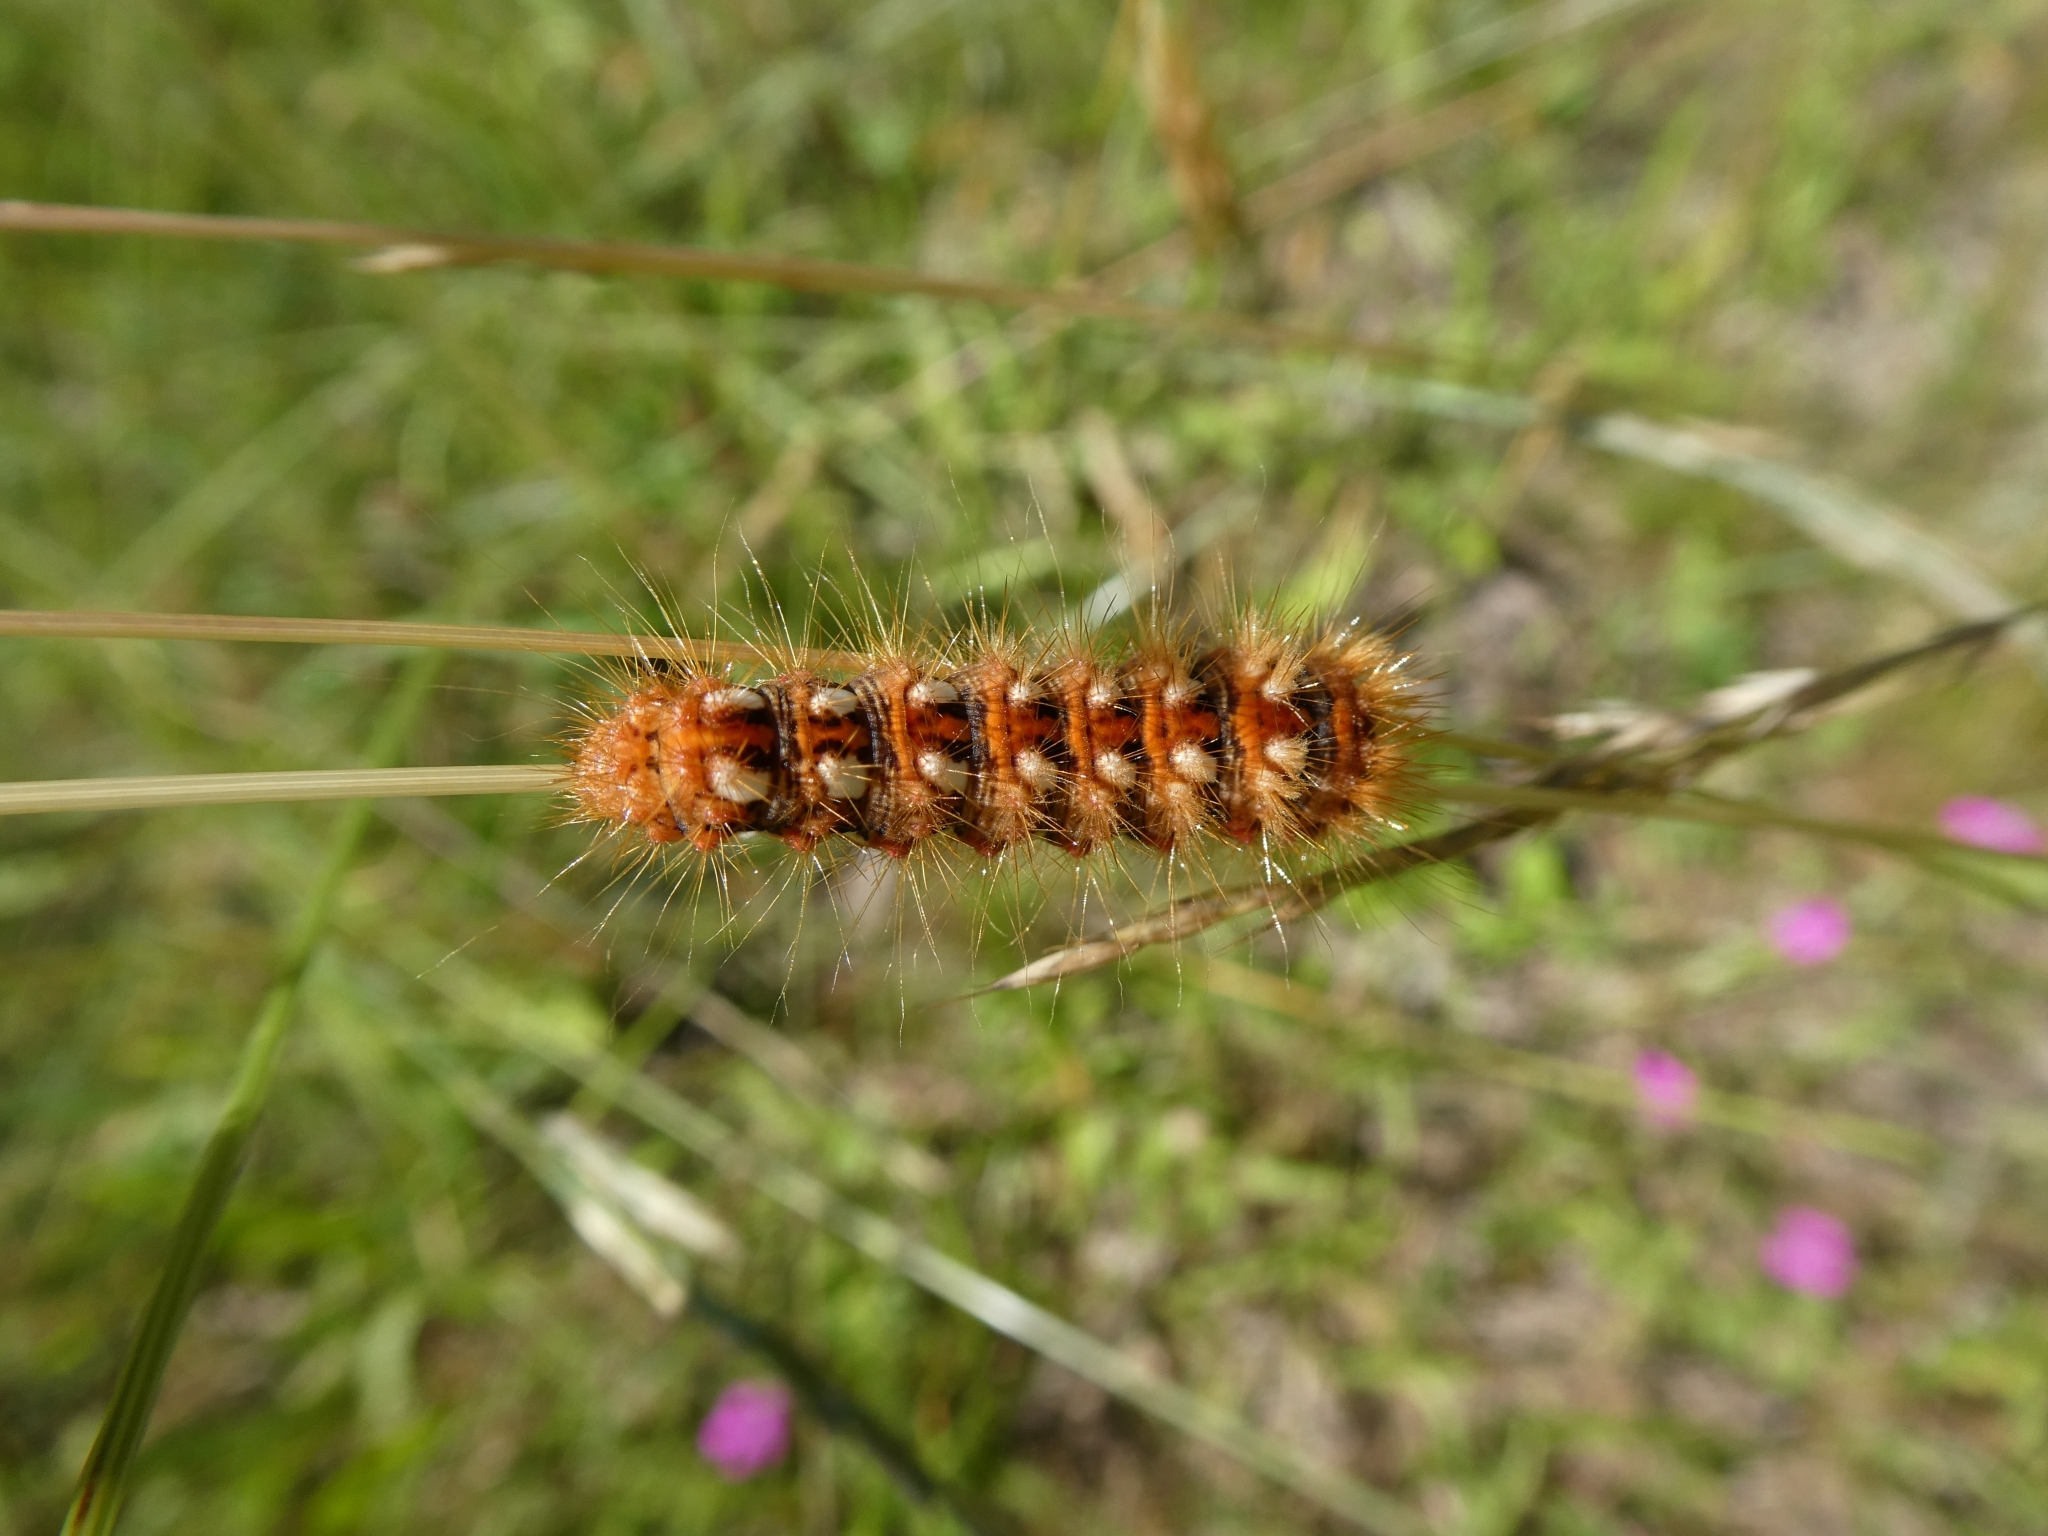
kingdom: Animalia
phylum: Arthropoda
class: Insecta
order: Lepidoptera
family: Noctuidae
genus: Acronicta
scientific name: Acronicta rumicis
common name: Knot grass
